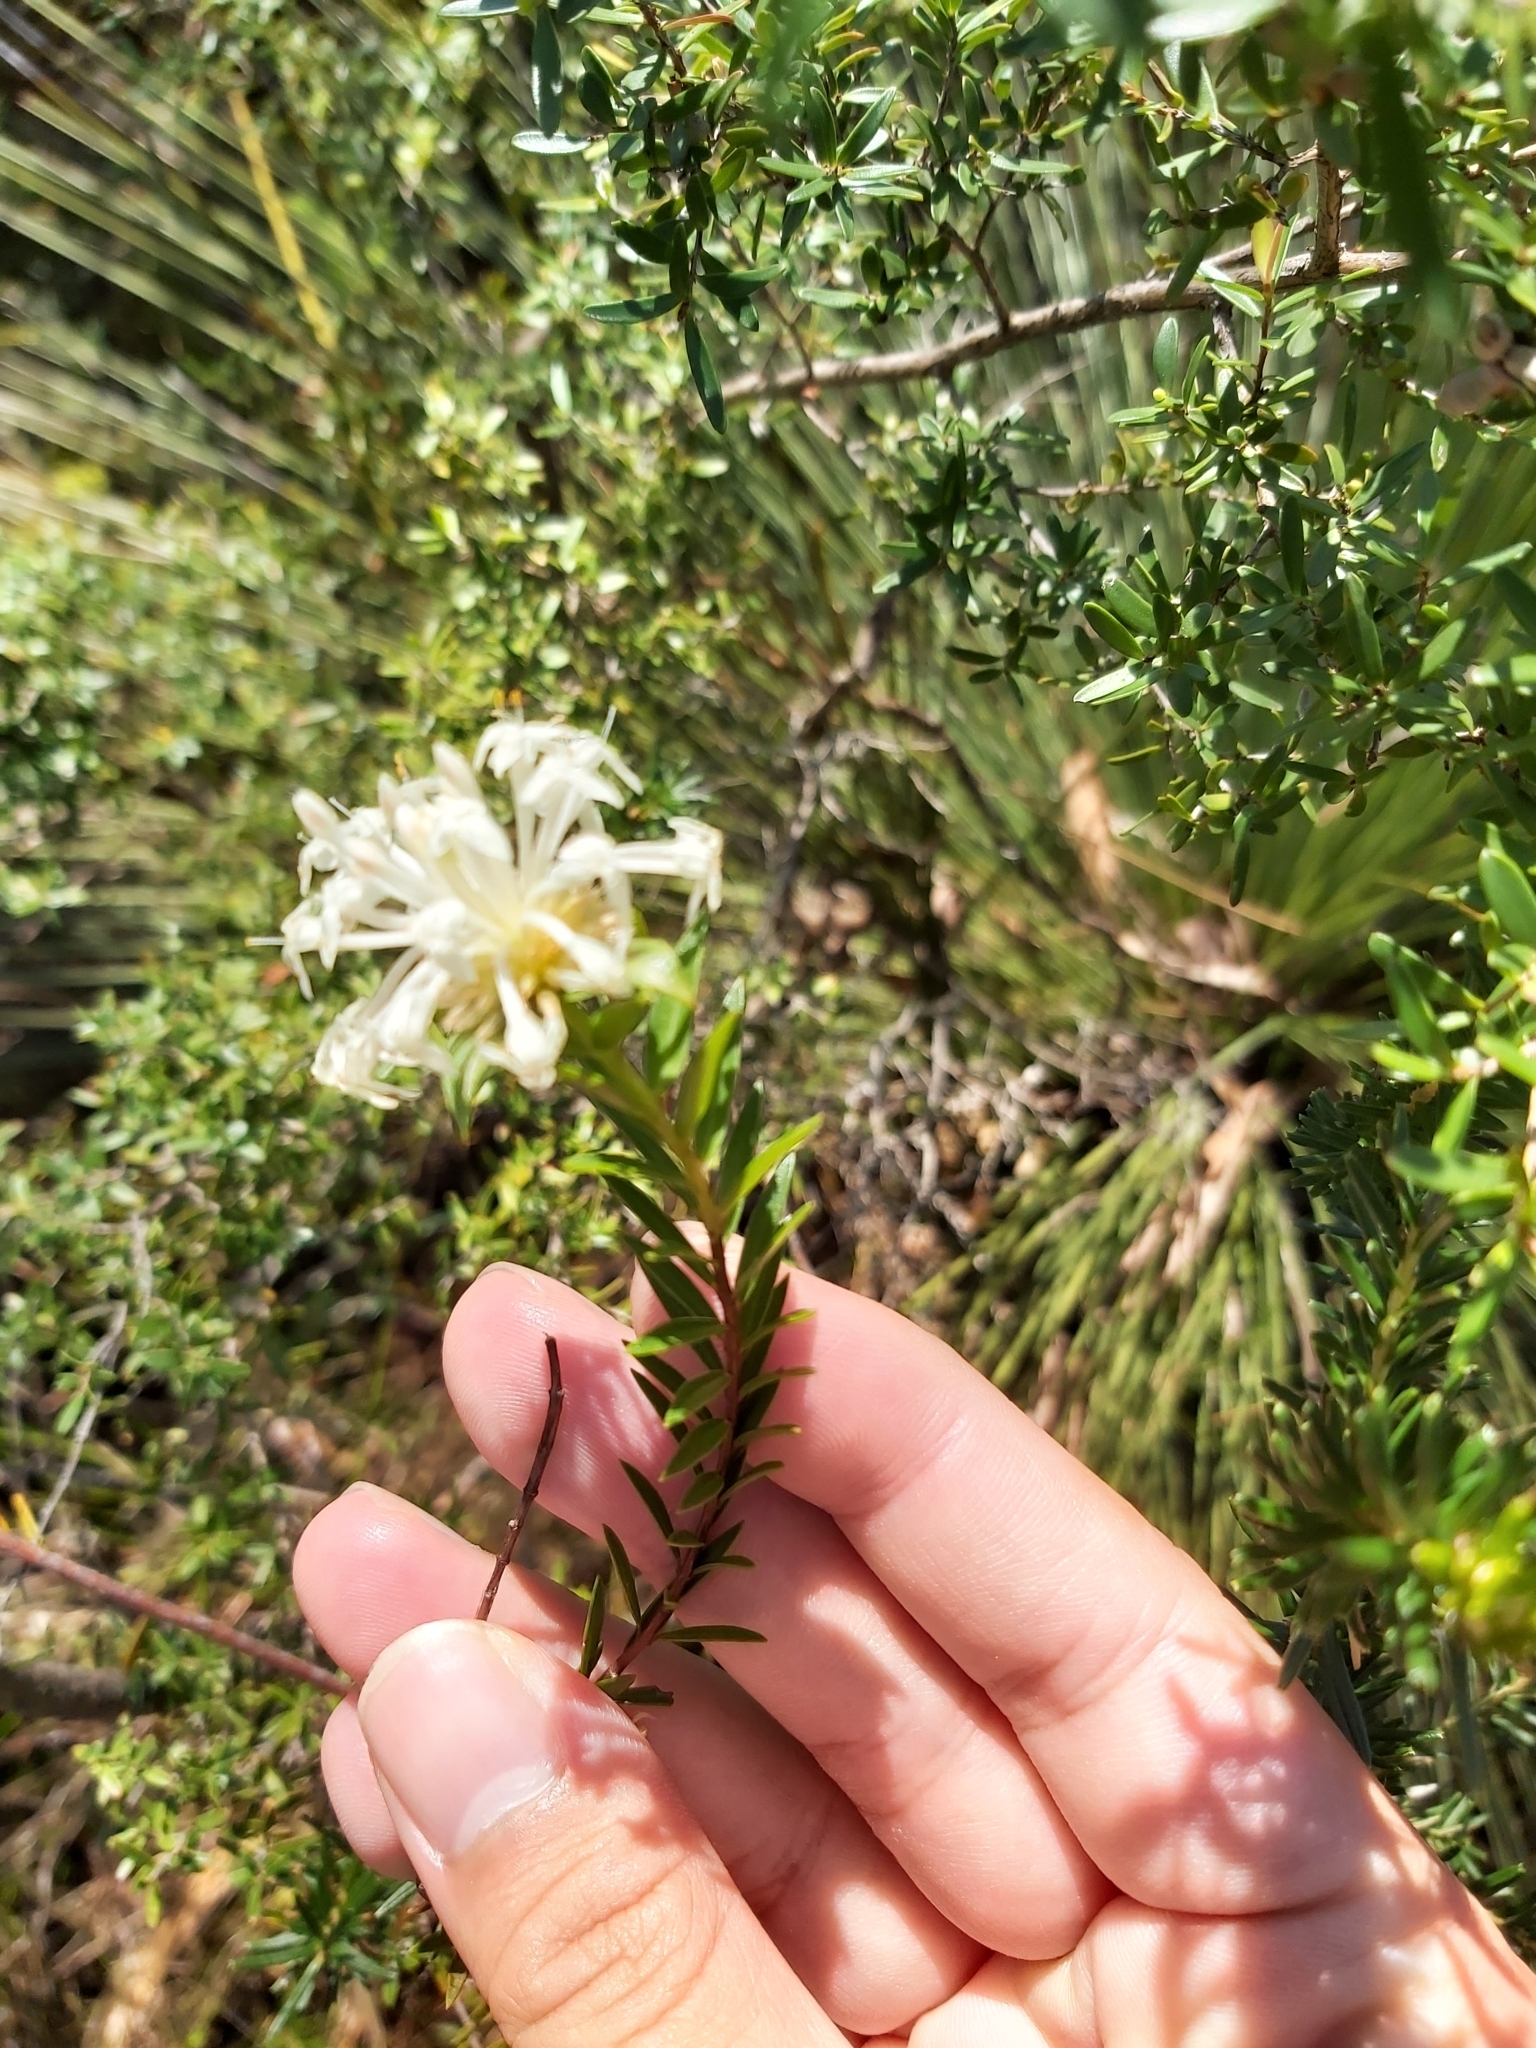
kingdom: Plantae
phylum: Tracheophyta
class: Magnoliopsida
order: Malvales
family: Thymelaeaceae
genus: Pimelea
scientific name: Pimelea linifolia
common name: Queen-of-the-bush
